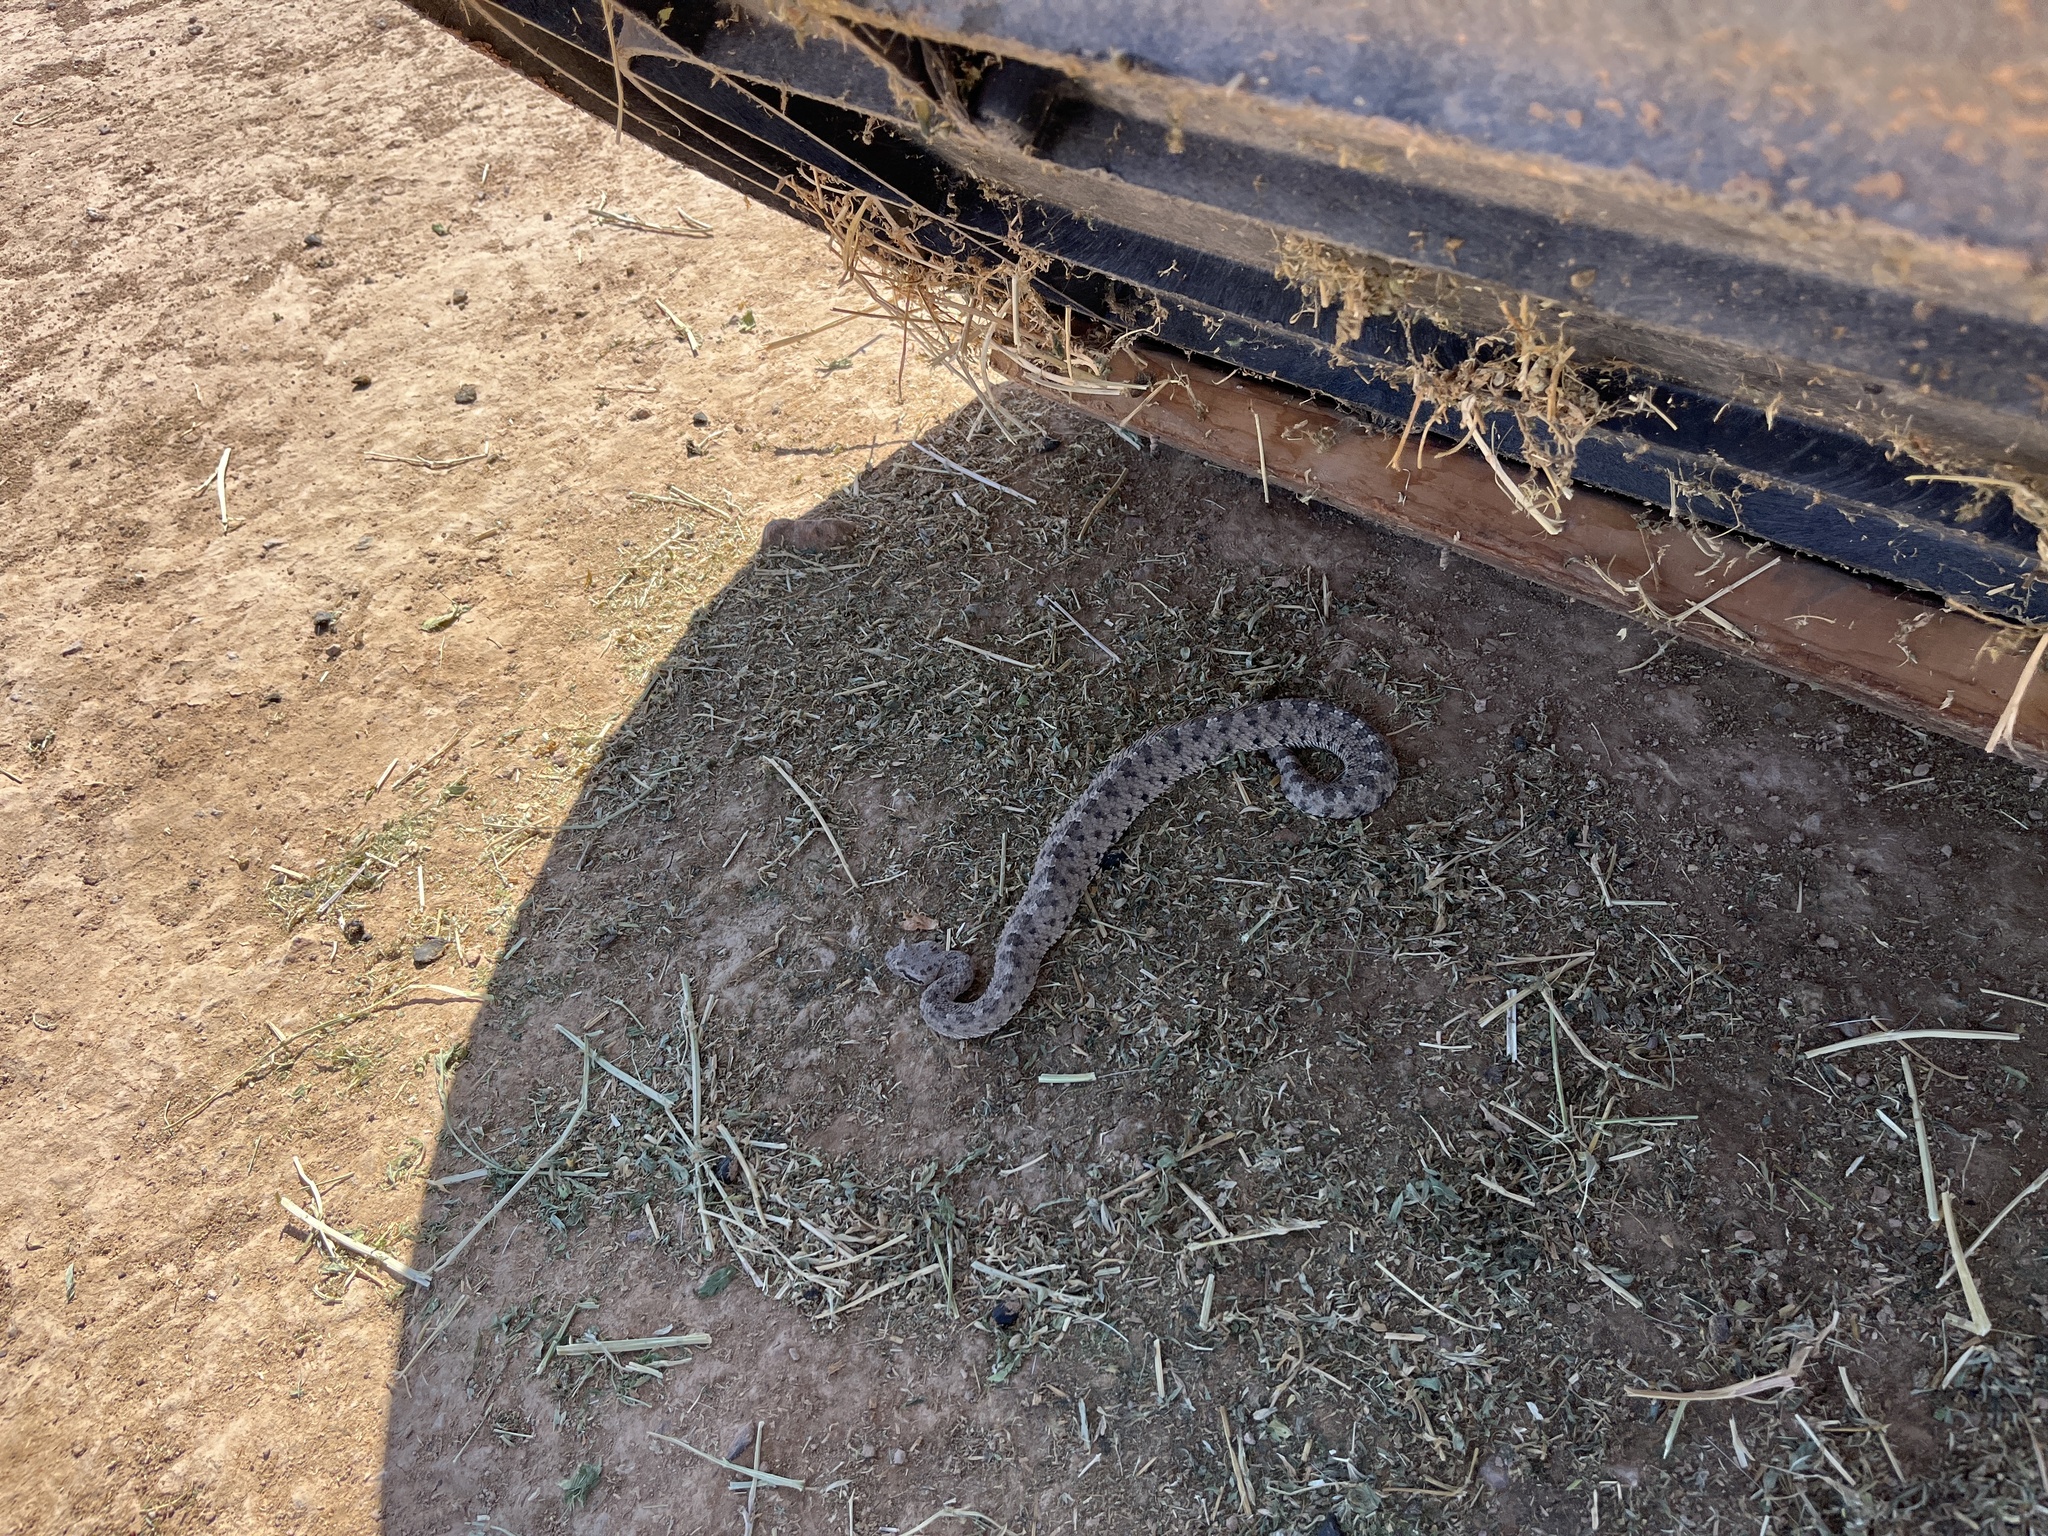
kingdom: Animalia
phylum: Chordata
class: Squamata
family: Viperidae
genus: Crotalus
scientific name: Crotalus cerastes
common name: Sidewinder
